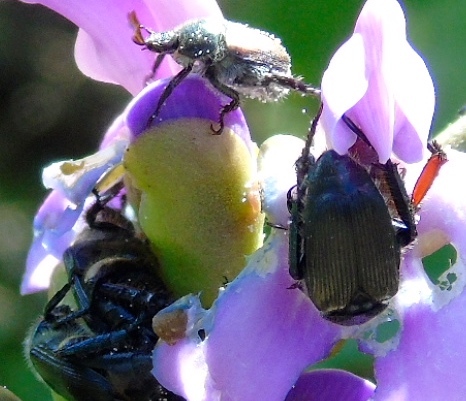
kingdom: Animalia
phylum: Arthropoda
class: Insecta
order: Coleoptera
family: Scarabaeidae
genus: Strigoderma
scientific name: Strigoderma
